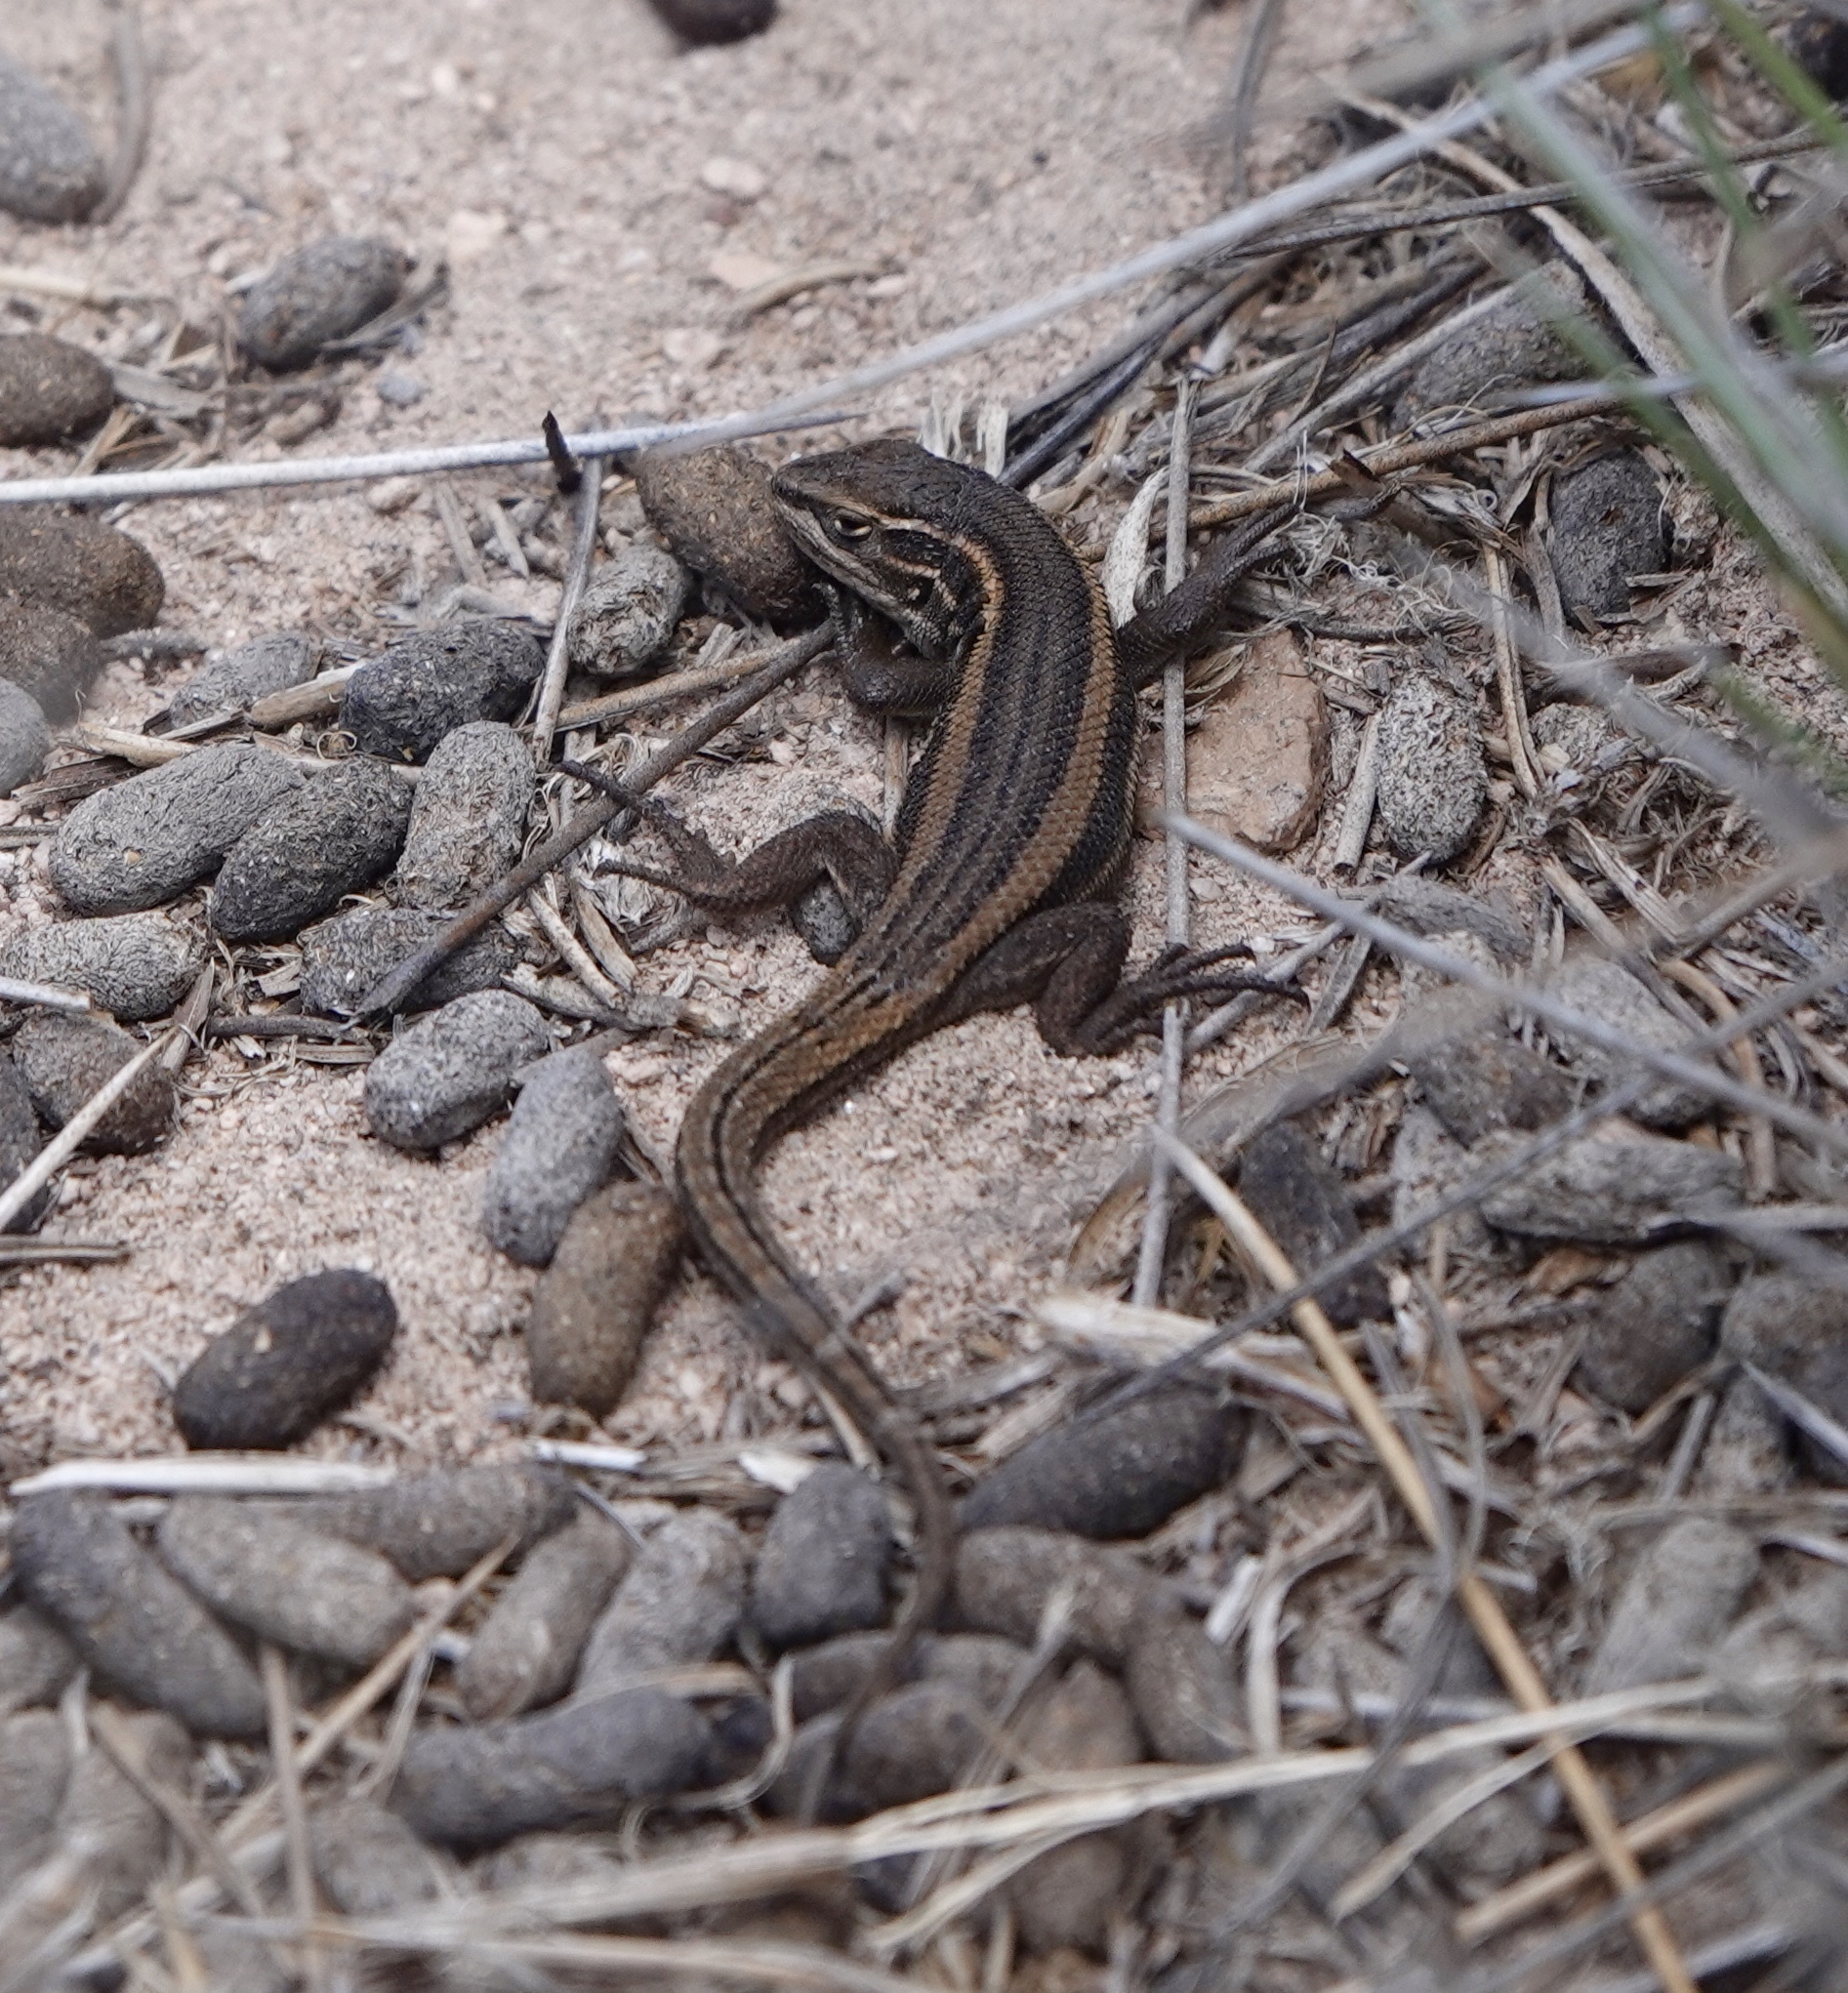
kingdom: Animalia
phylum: Chordata
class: Squamata
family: Liolaemidae
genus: Liolaemus
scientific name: Liolaemus chungara
